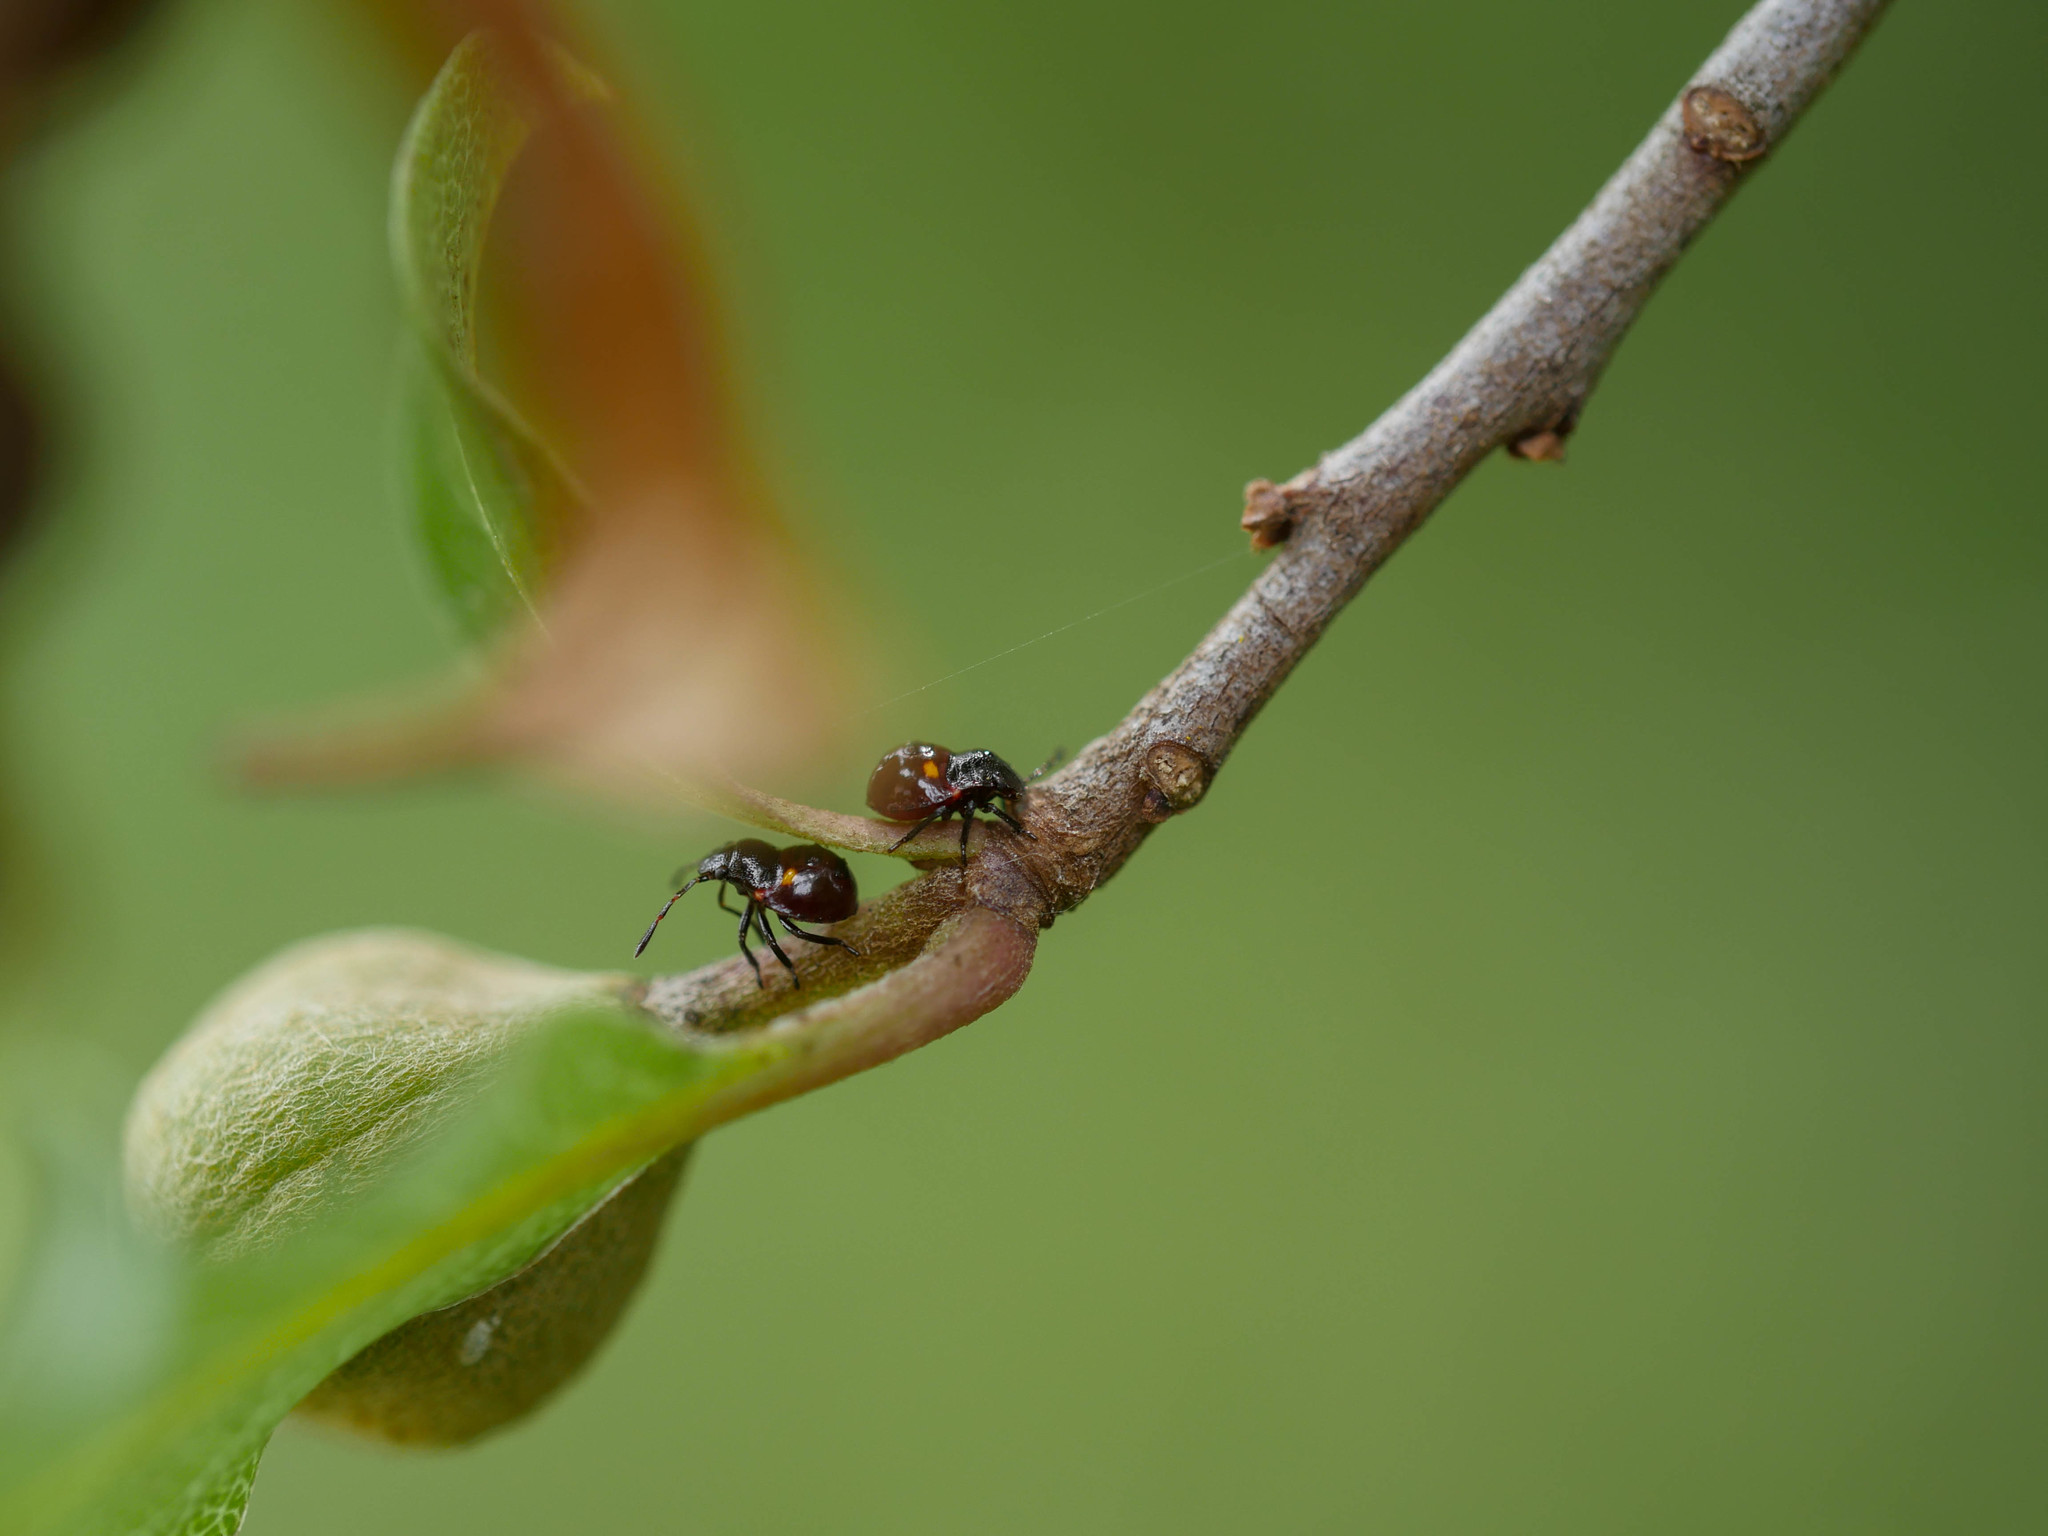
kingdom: Animalia
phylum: Arthropoda
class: Insecta
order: Hemiptera
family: Pentatomidae
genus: Monteithiella
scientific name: Monteithiella
